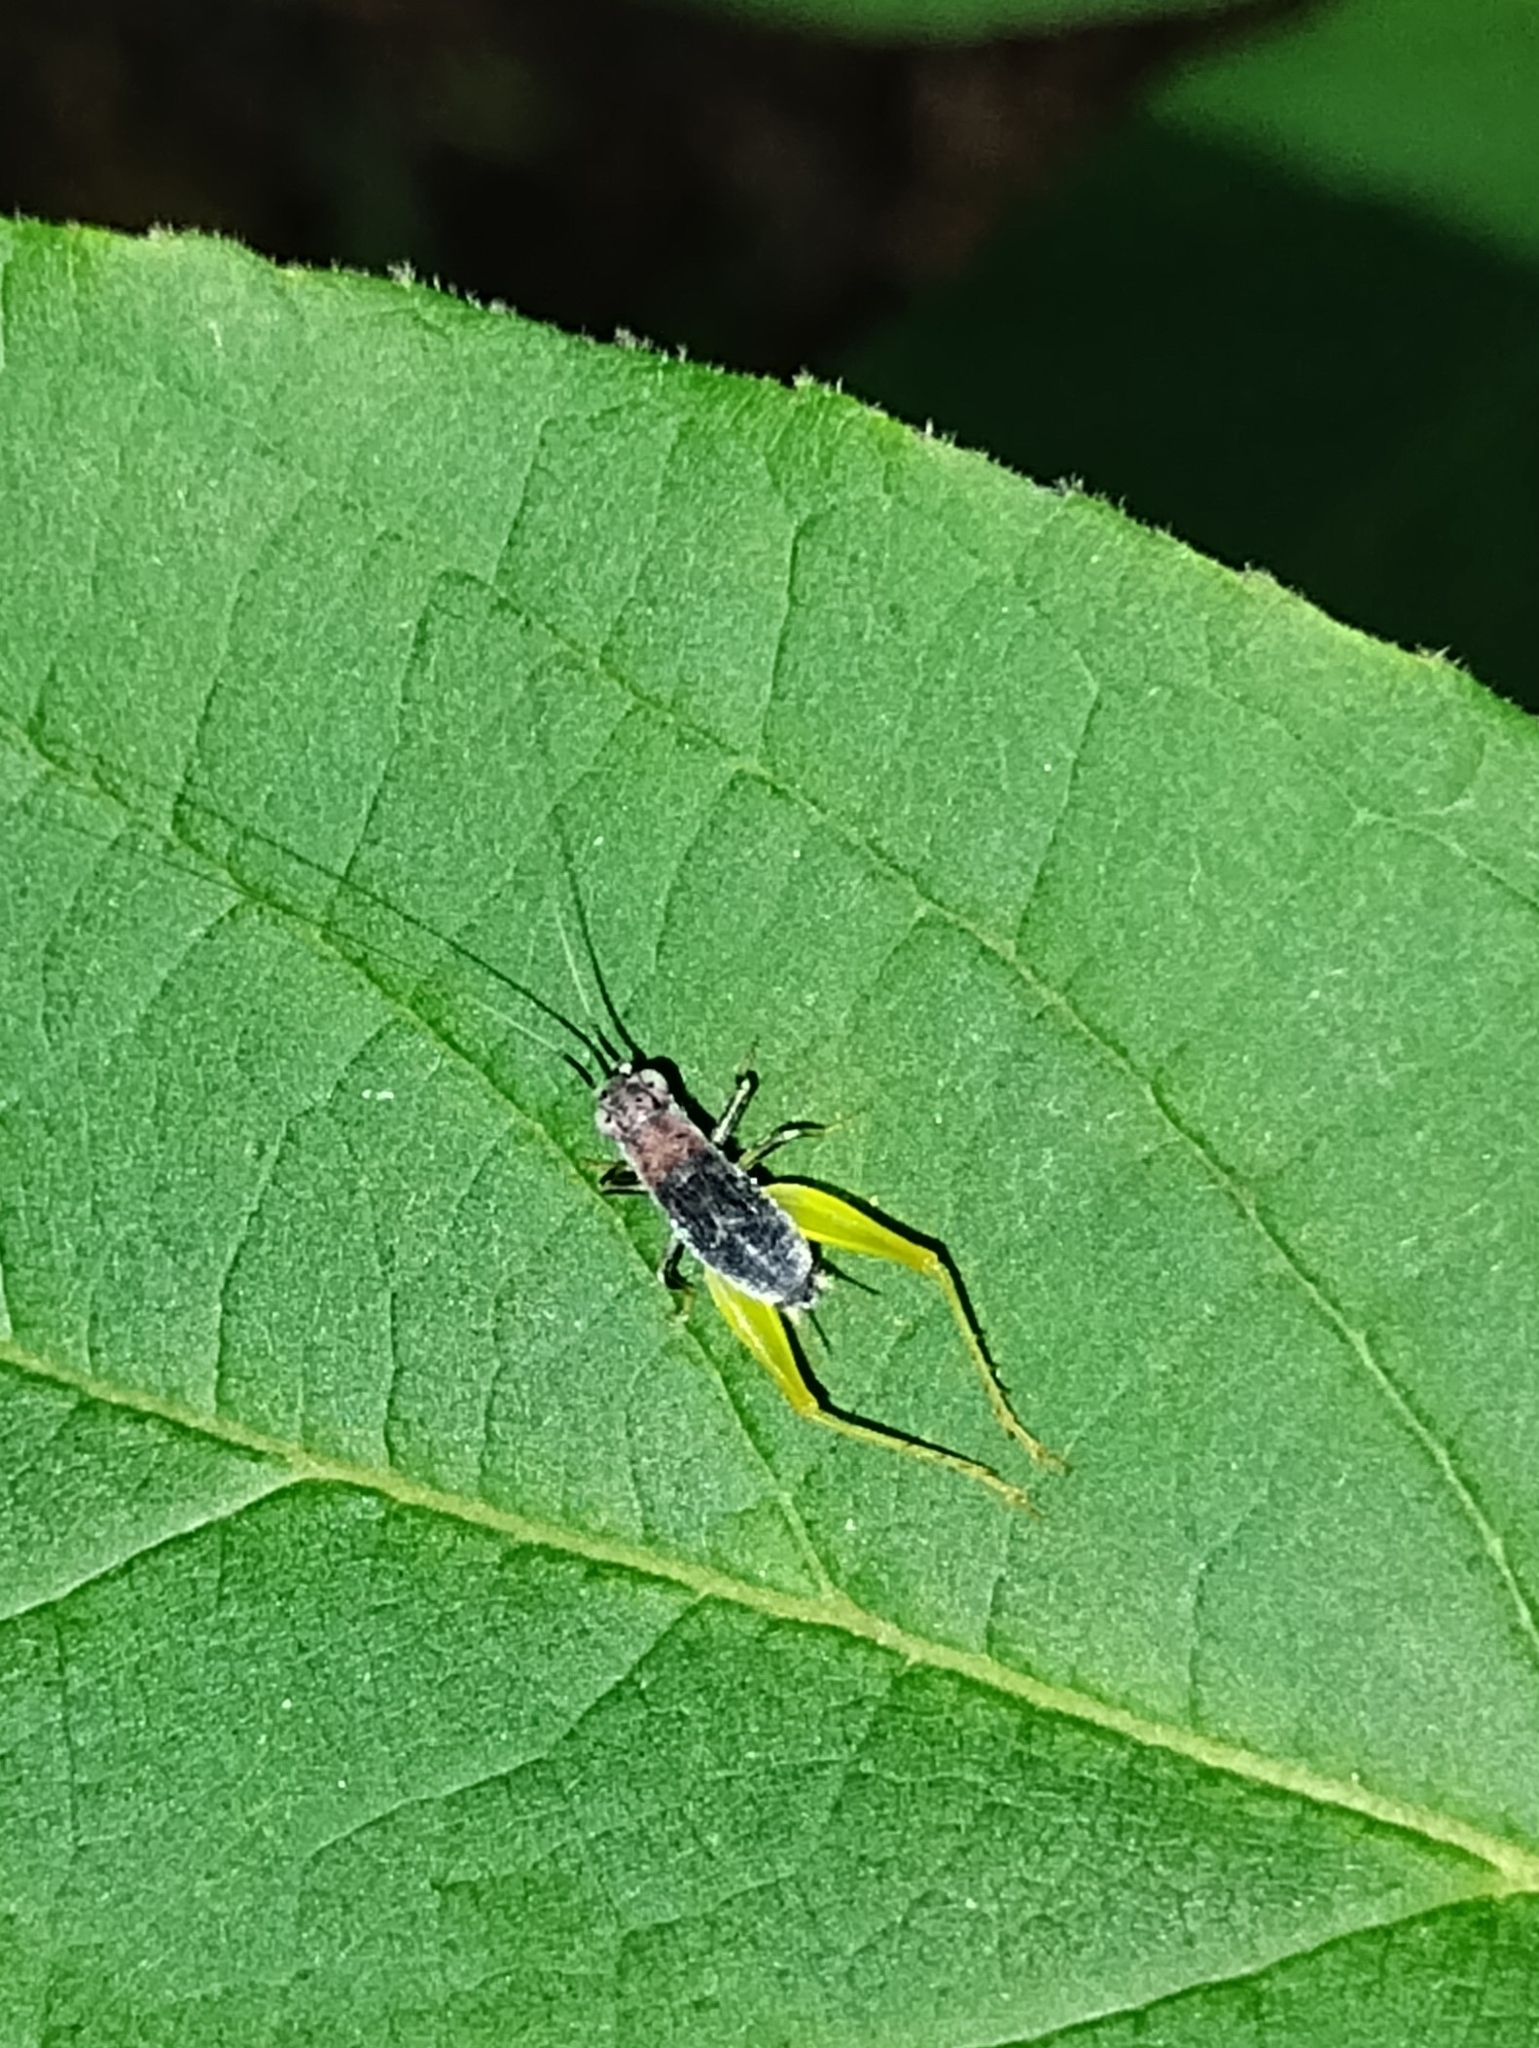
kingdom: Animalia
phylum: Arthropoda
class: Insecta
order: Orthoptera
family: Trigonidiidae
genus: Phyllopalpus
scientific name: Phyllopalpus pulchellus
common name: Handsome trig
